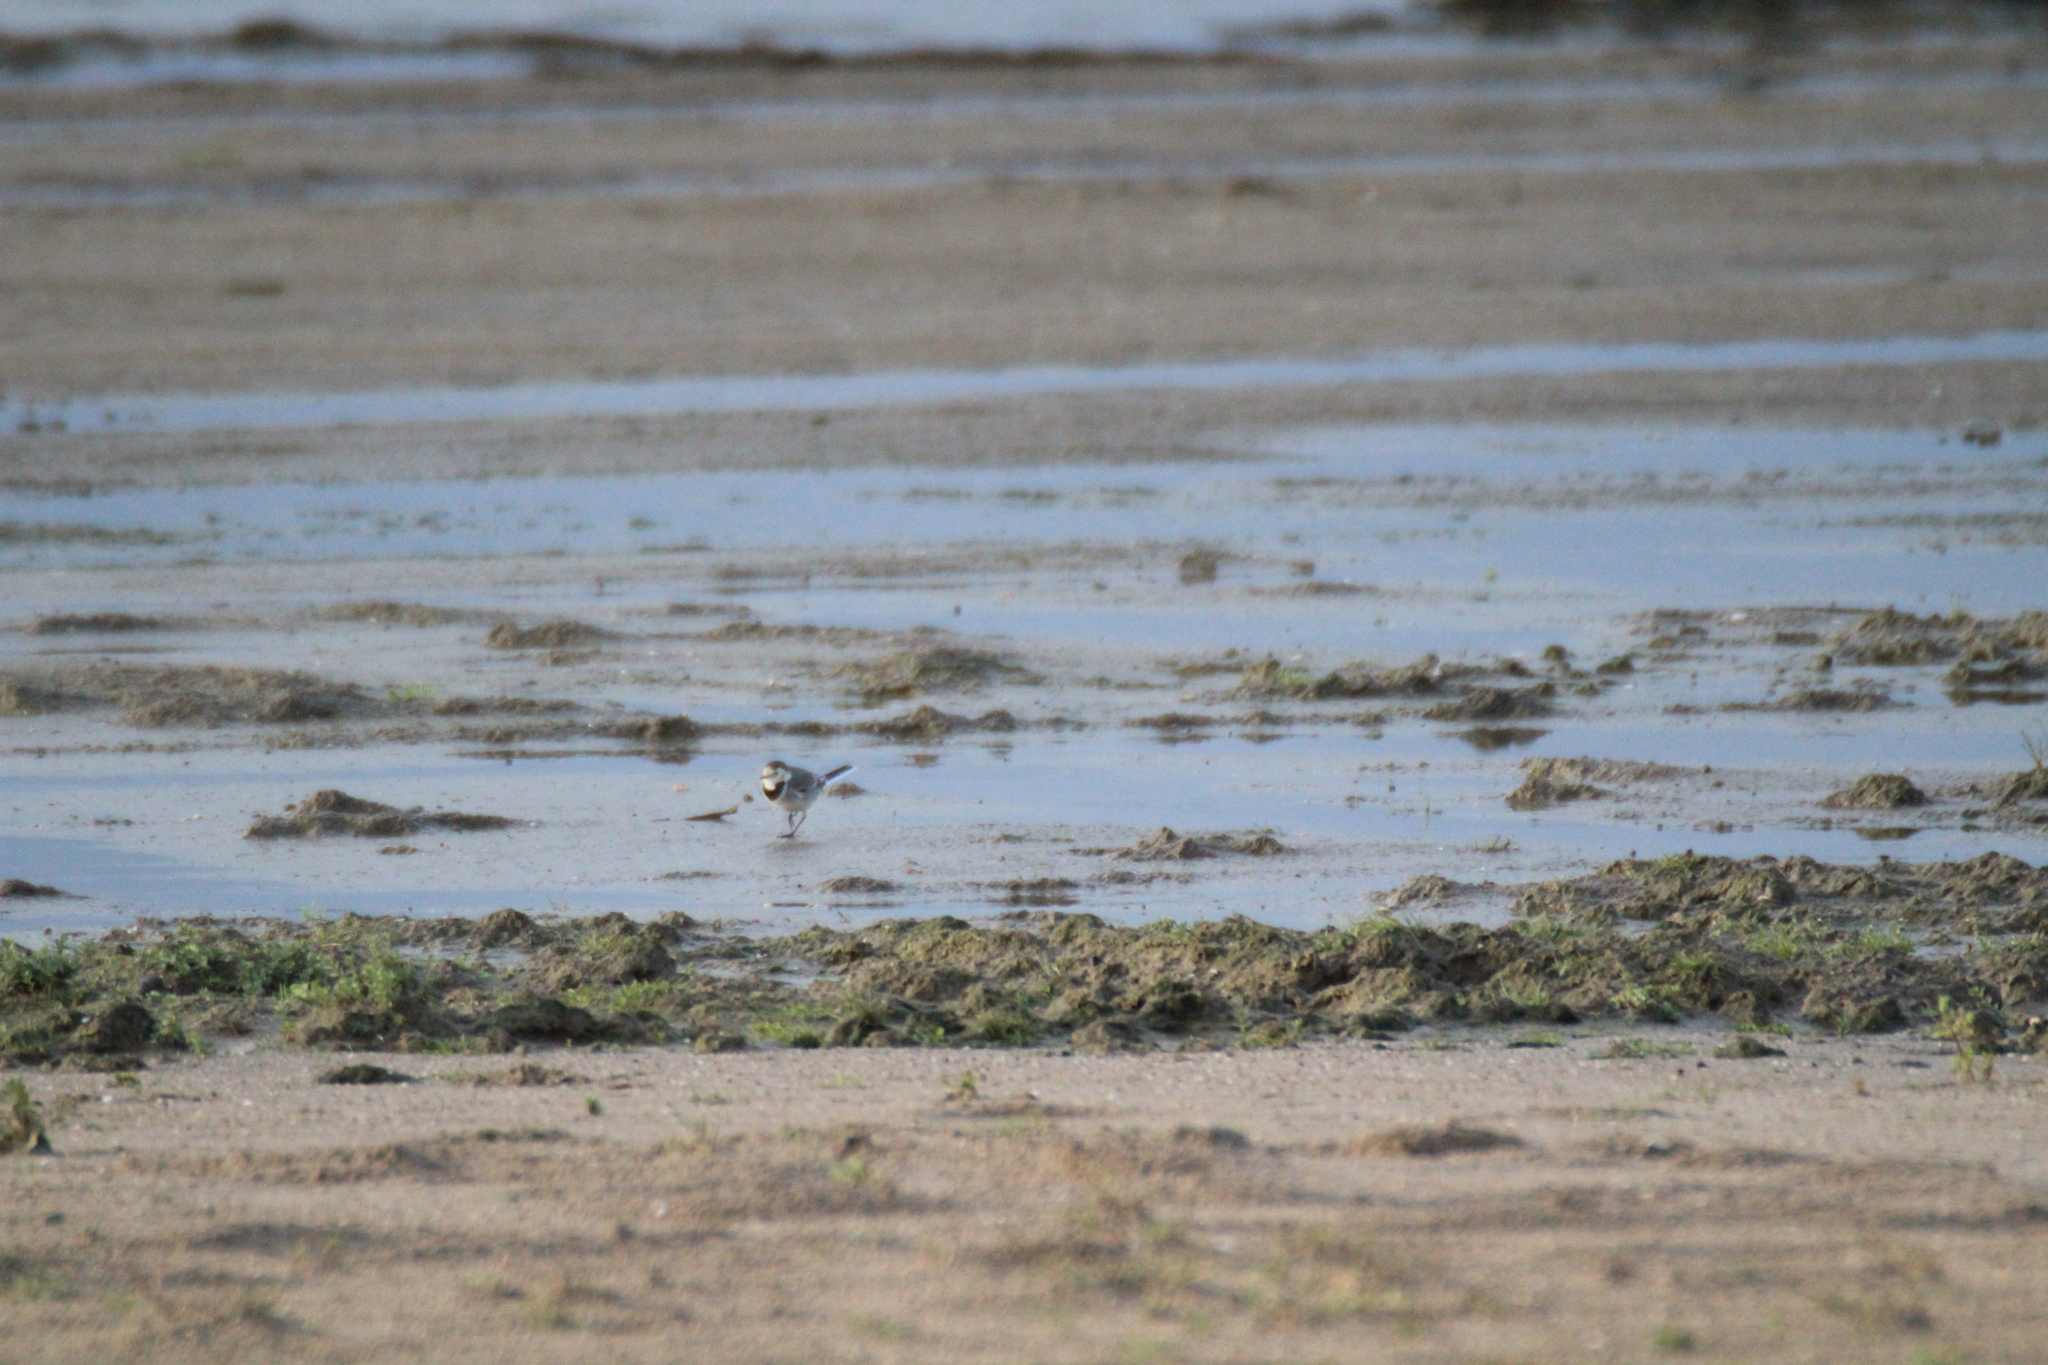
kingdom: Animalia
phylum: Chordata
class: Aves
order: Passeriformes
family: Motacillidae
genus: Motacilla
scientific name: Motacilla alba
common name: White wagtail
